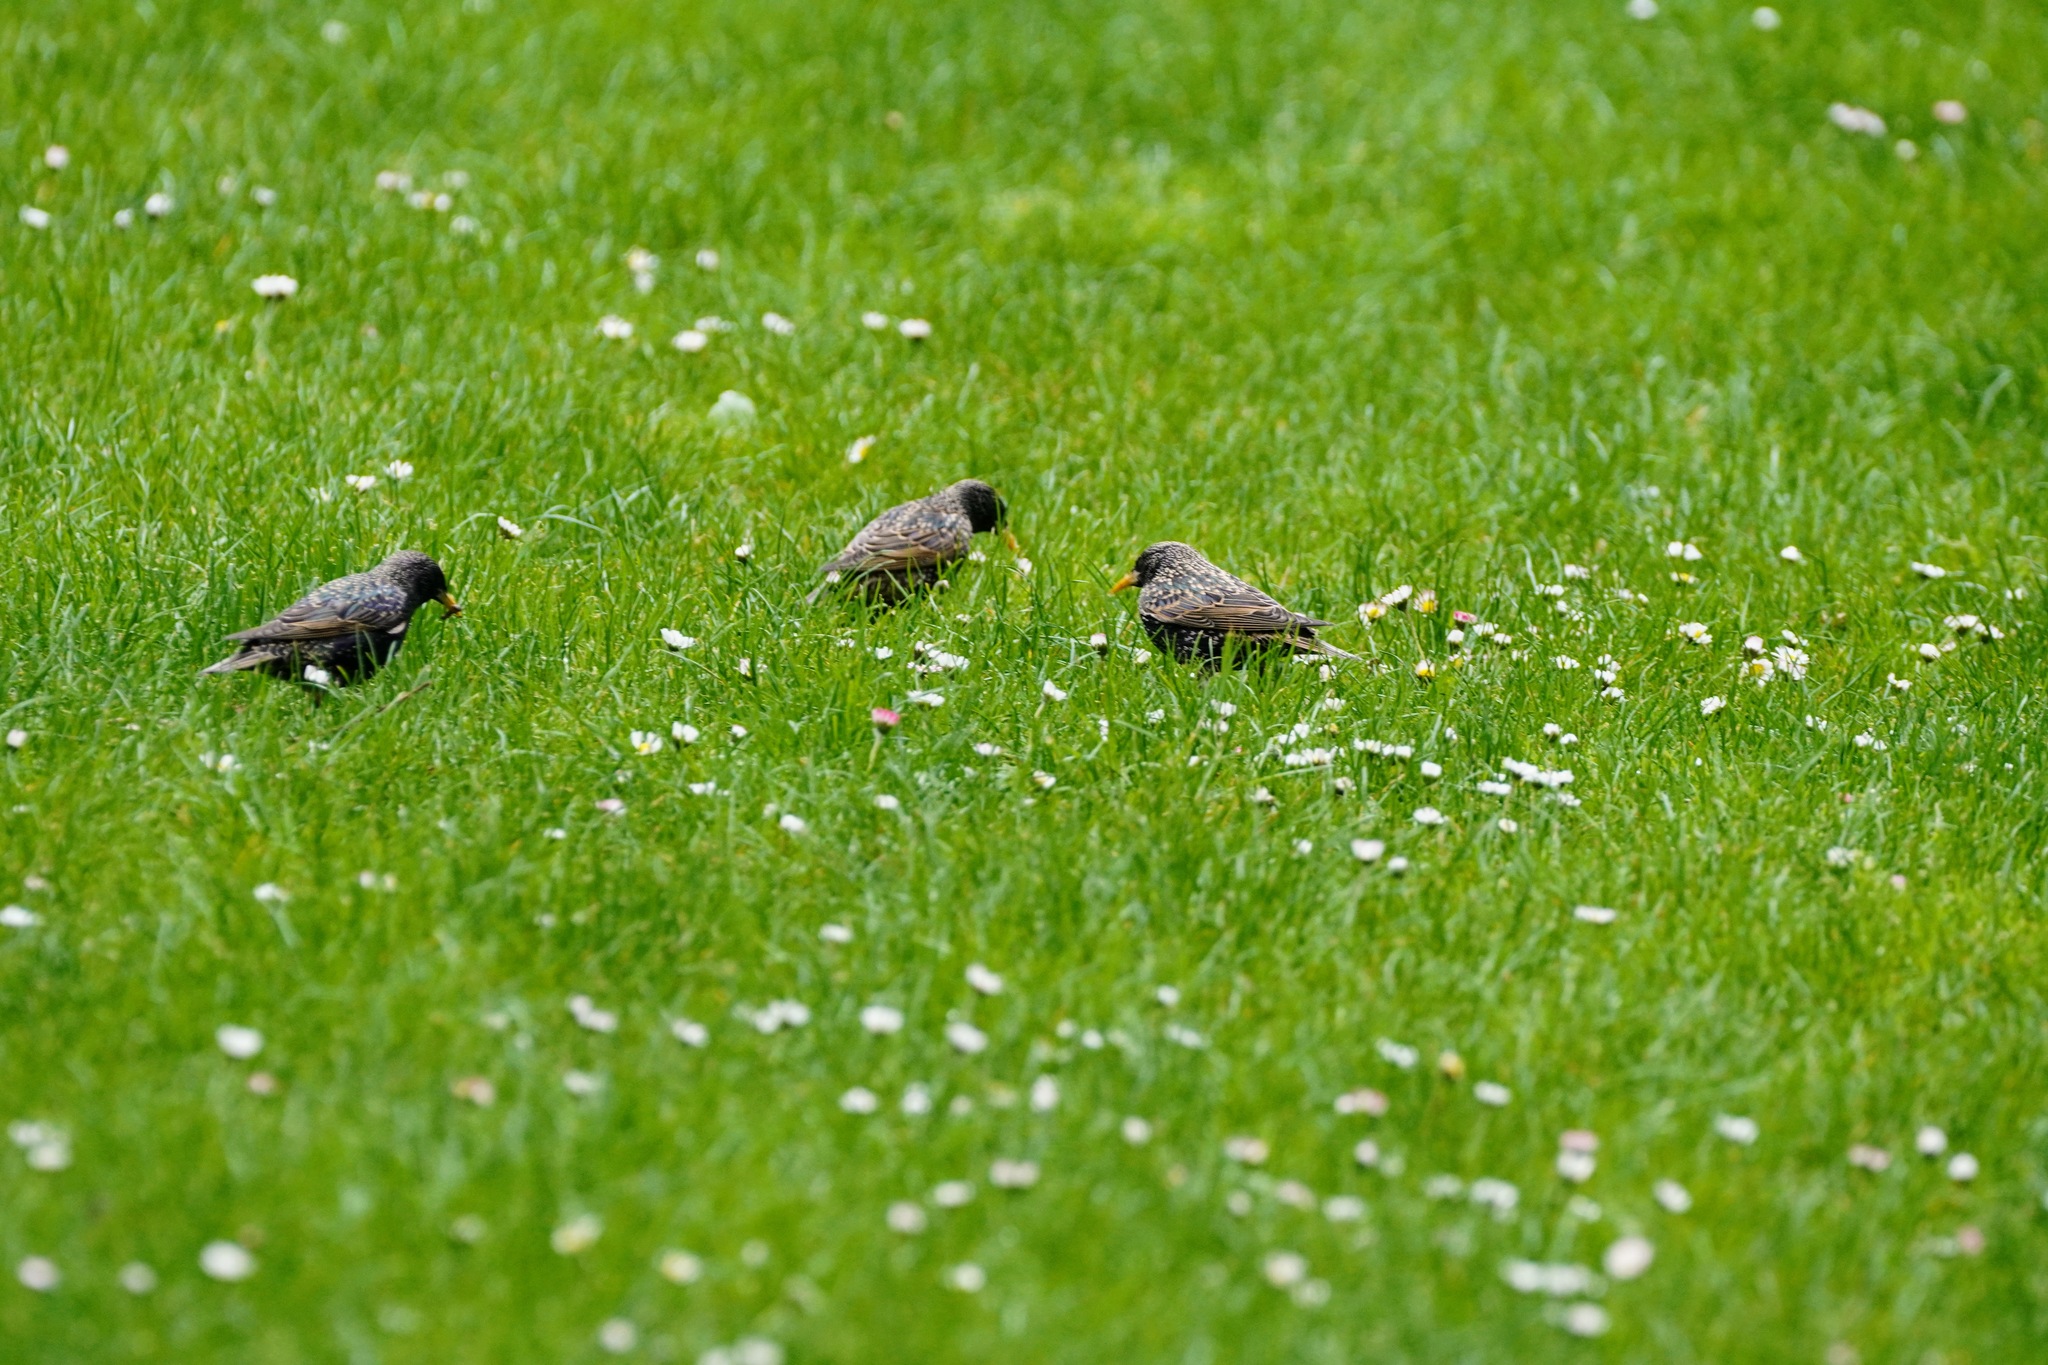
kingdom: Animalia
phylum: Chordata
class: Aves
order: Passeriformes
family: Sturnidae
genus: Sturnus
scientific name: Sturnus vulgaris
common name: Common starling
